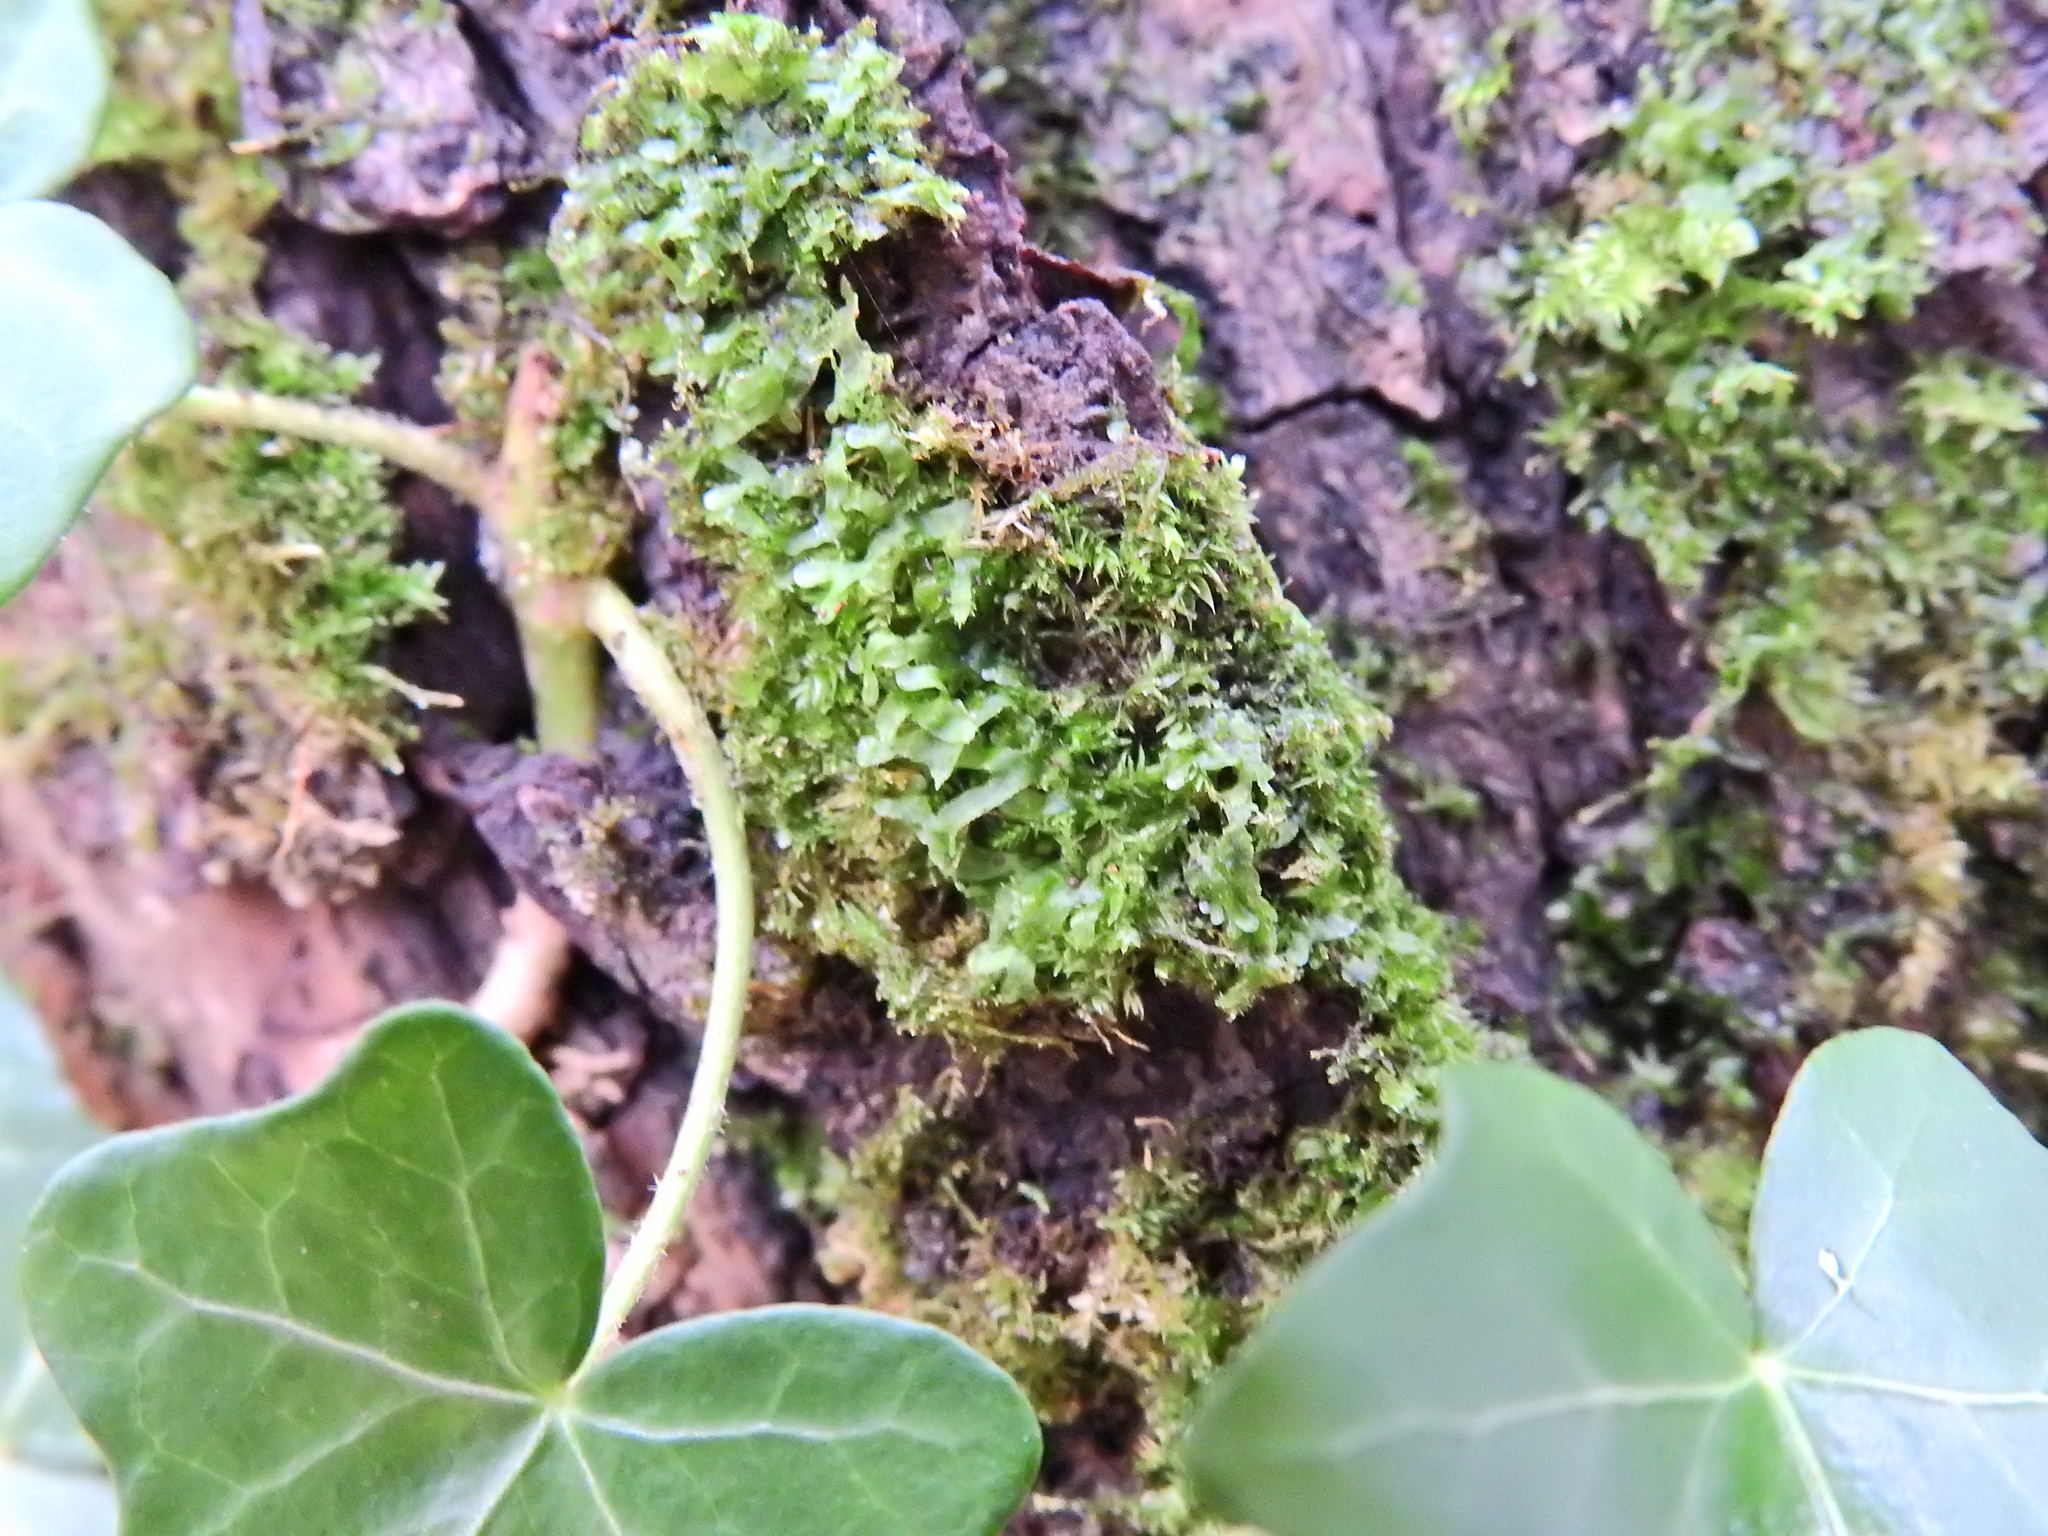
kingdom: Plantae
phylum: Marchantiophyta
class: Jungermanniopsida
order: Metzgeriales
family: Metzgeriaceae
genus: Metzgeria
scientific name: Metzgeria furcata
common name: Forked veilwort
